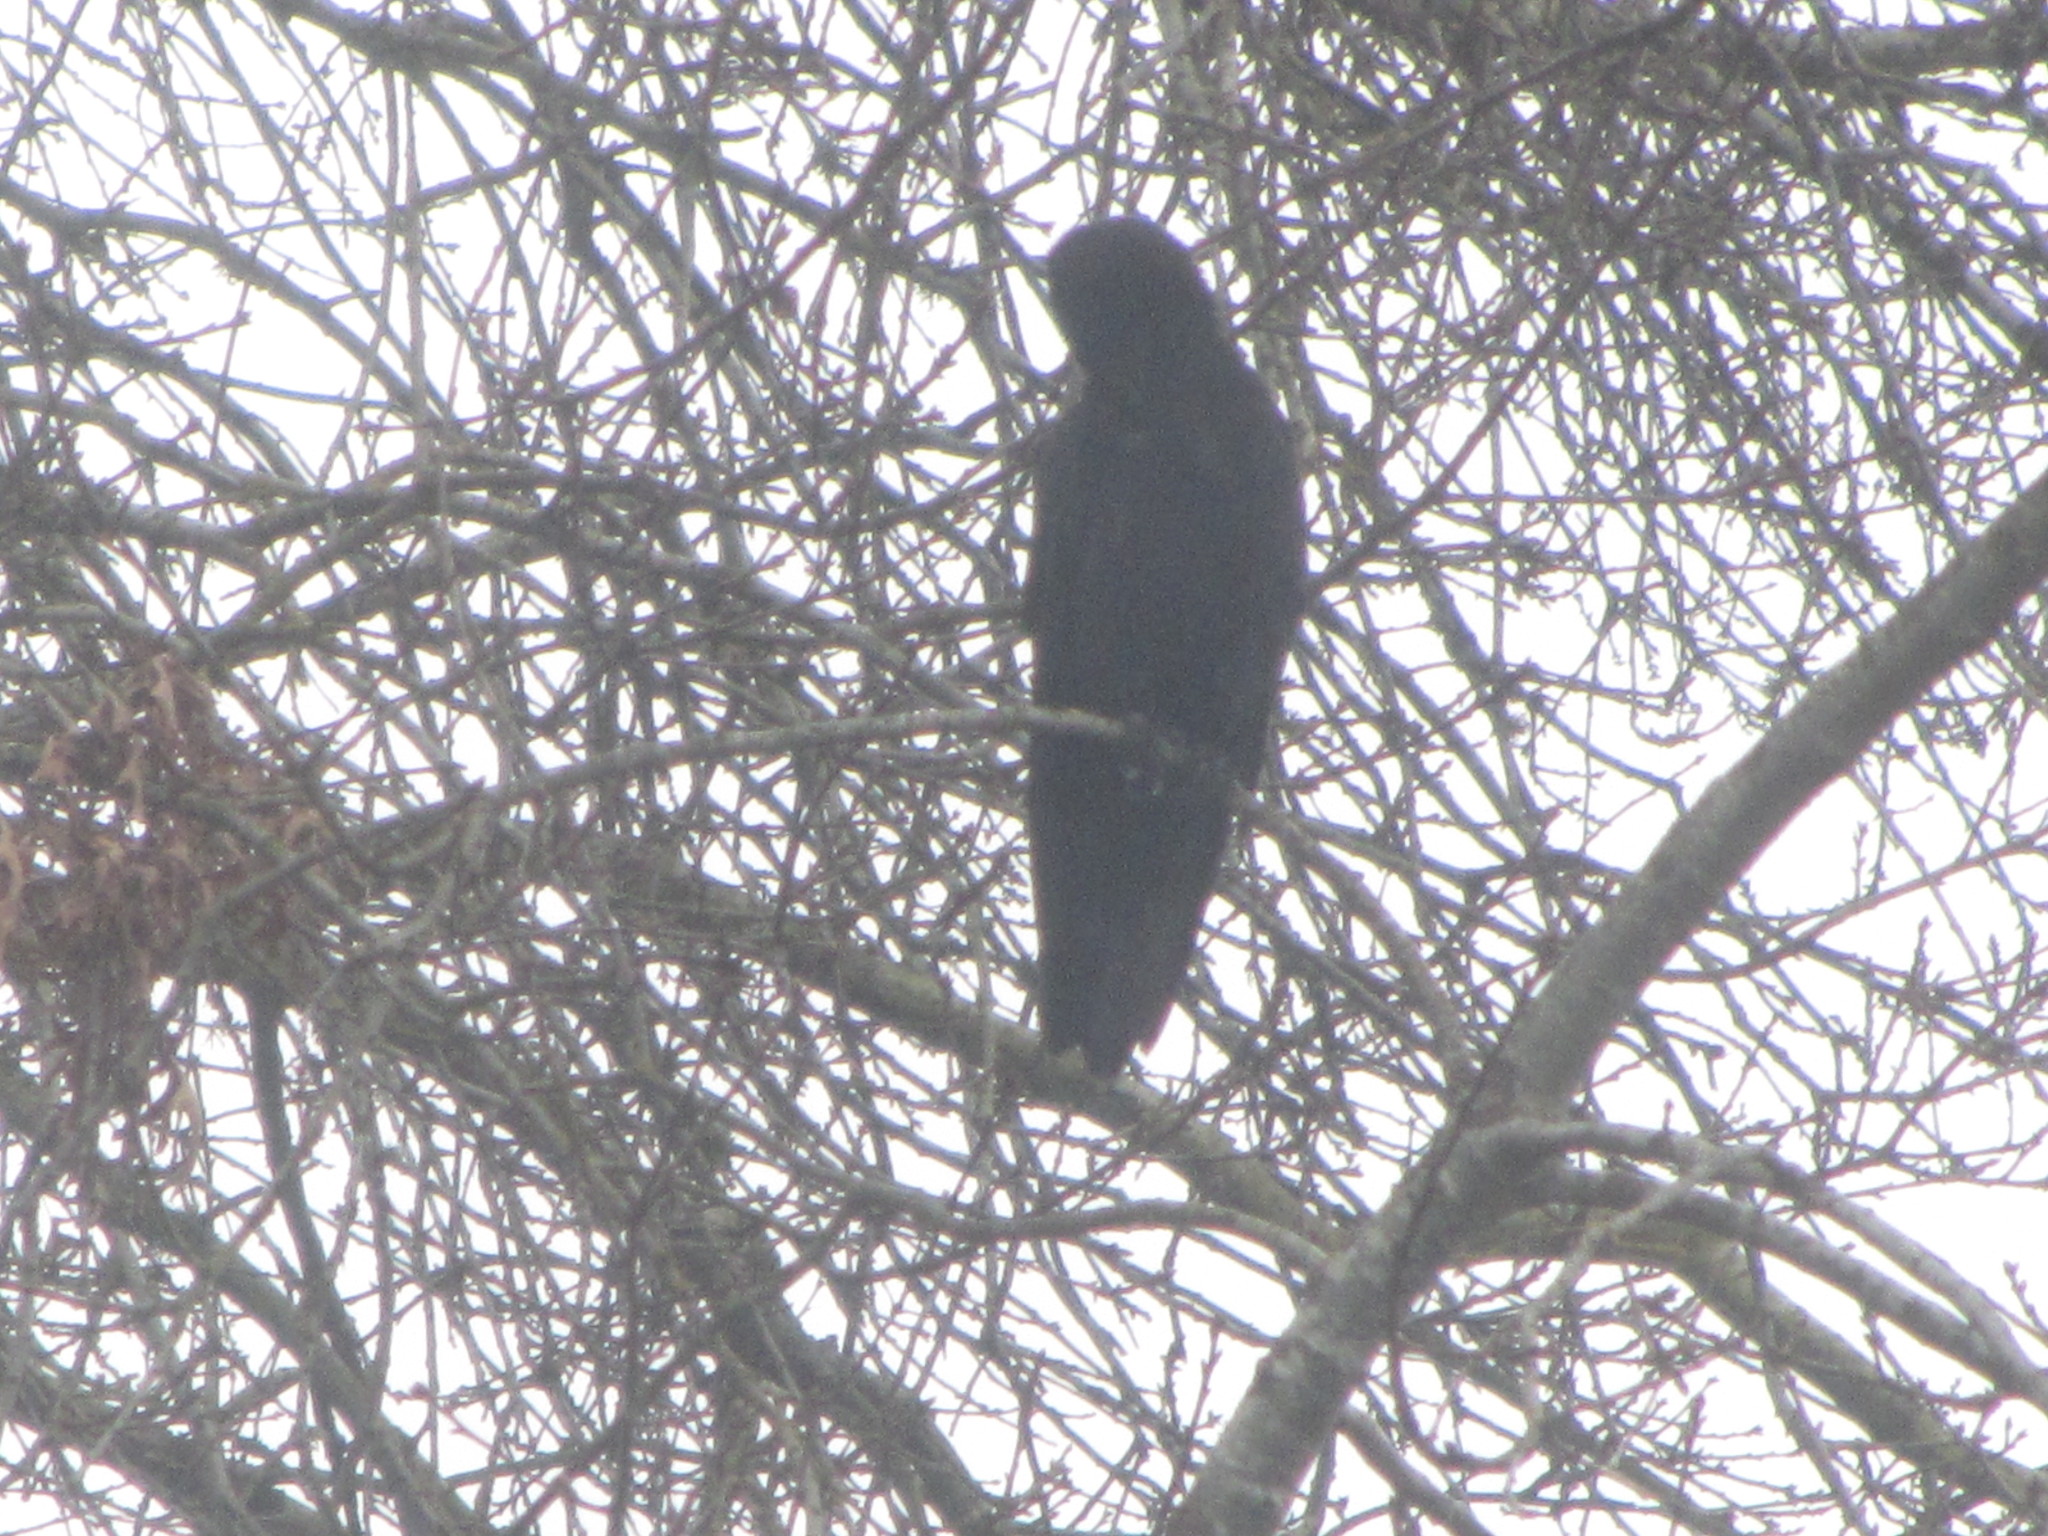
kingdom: Animalia
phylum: Chordata
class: Aves
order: Passeriformes
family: Corvidae
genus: Corvus
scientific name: Corvus brachyrhynchos
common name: American crow
